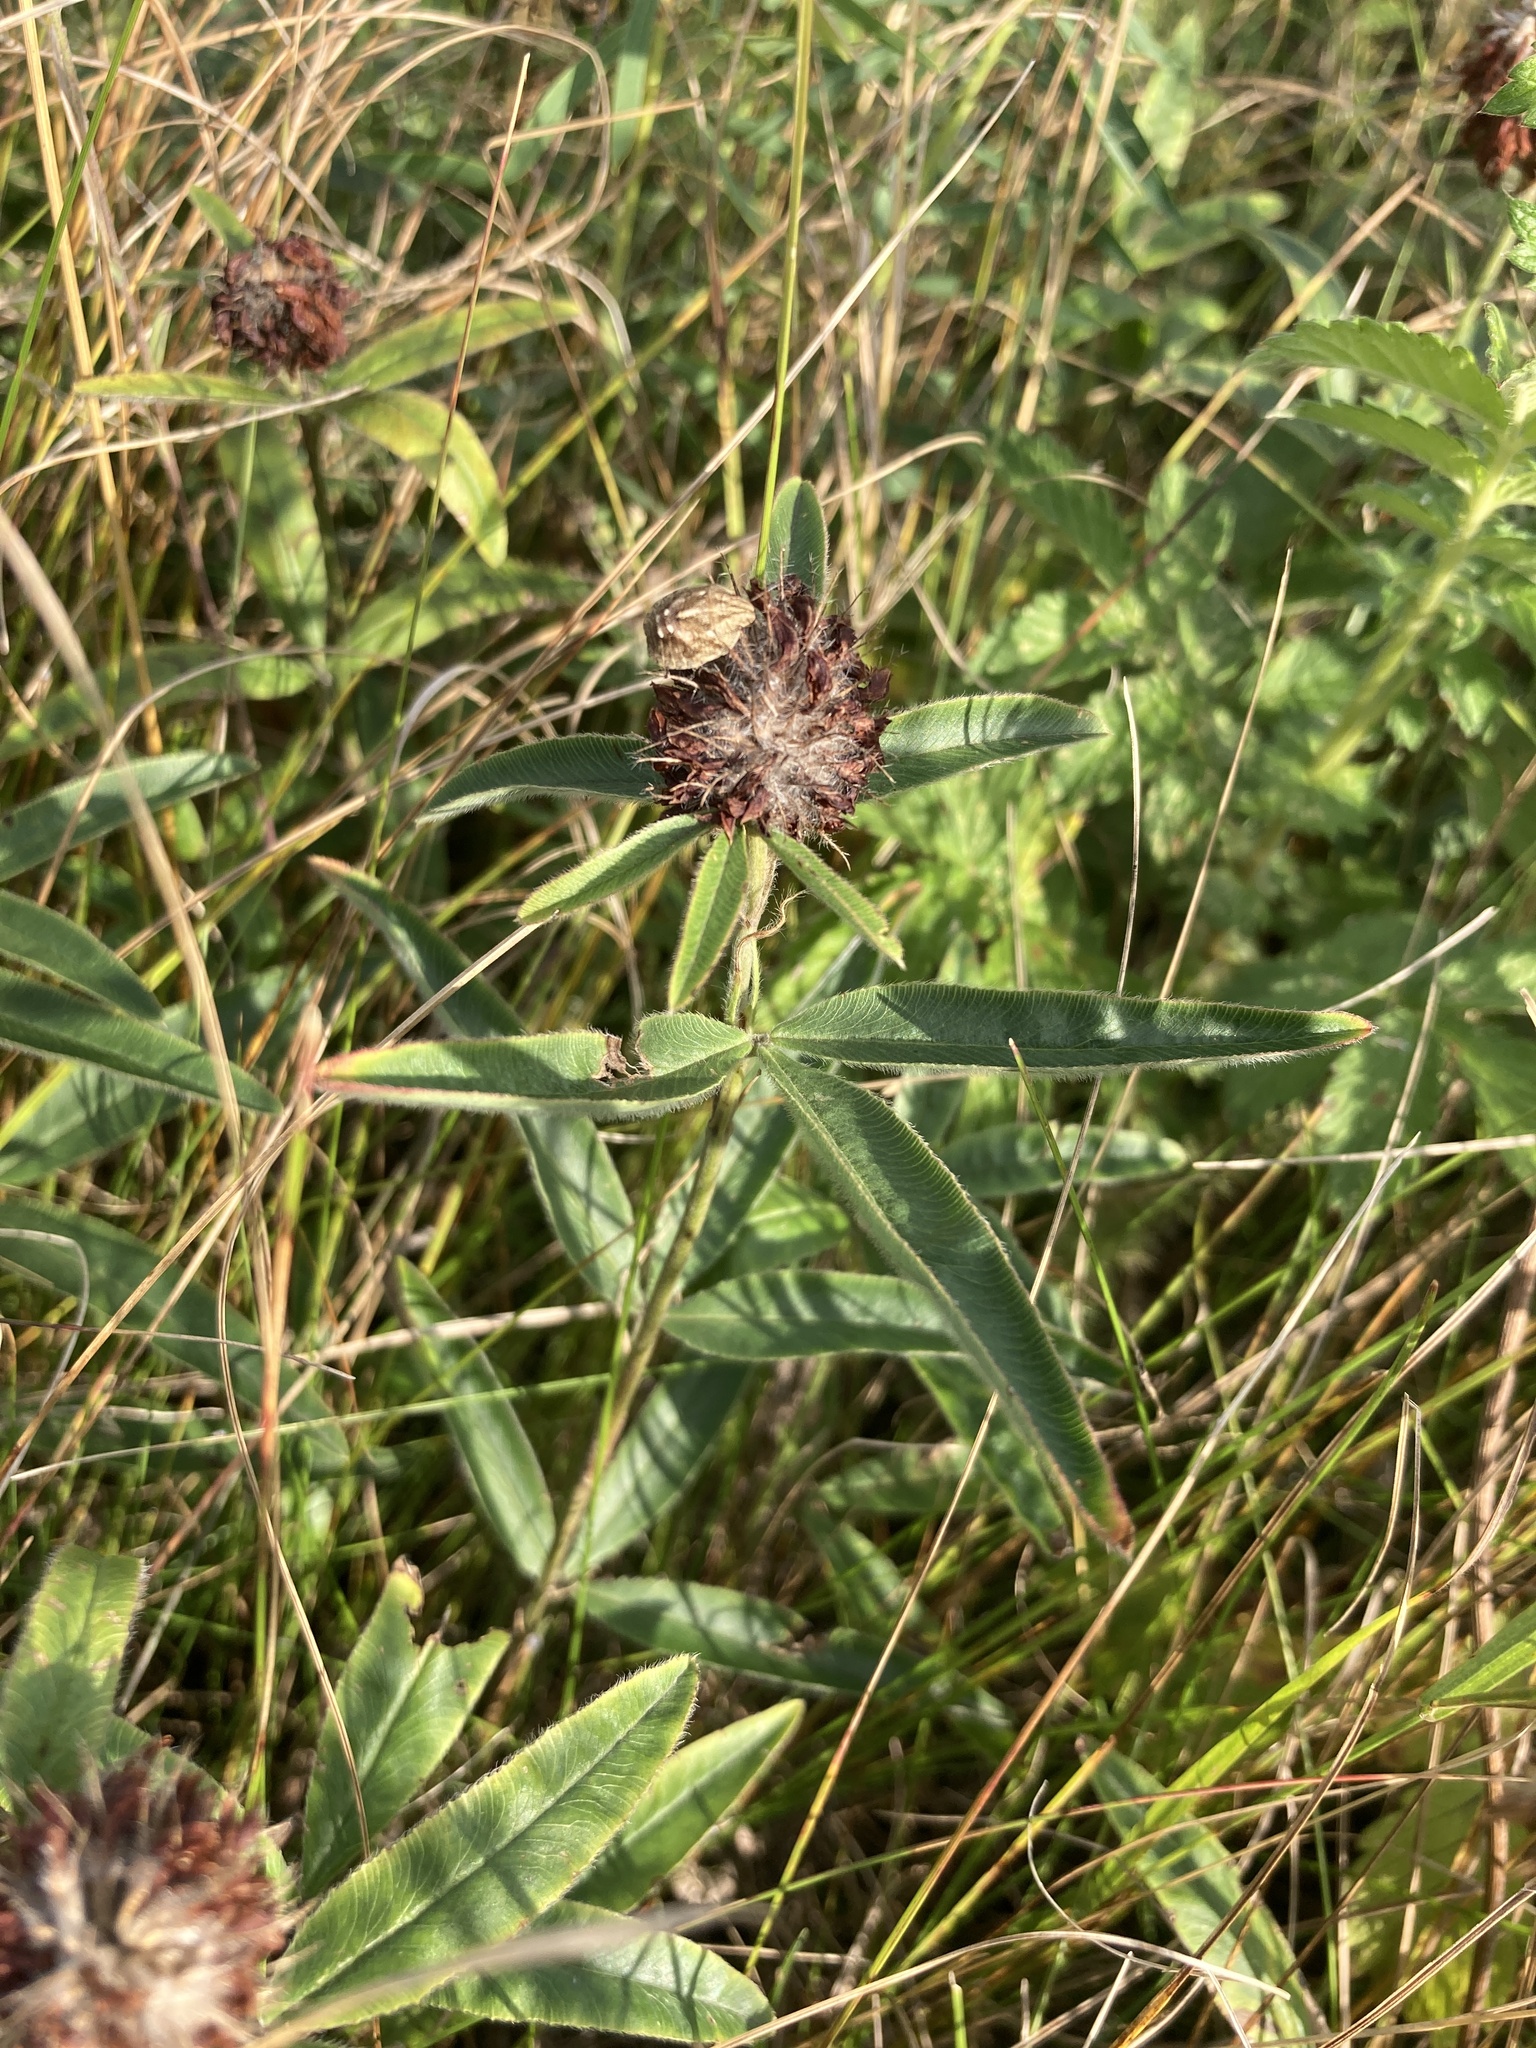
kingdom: Plantae
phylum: Tracheophyta
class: Magnoliopsida
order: Fabales
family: Fabaceae
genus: Trifolium
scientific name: Trifolium alpestre
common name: Owl-head clover
